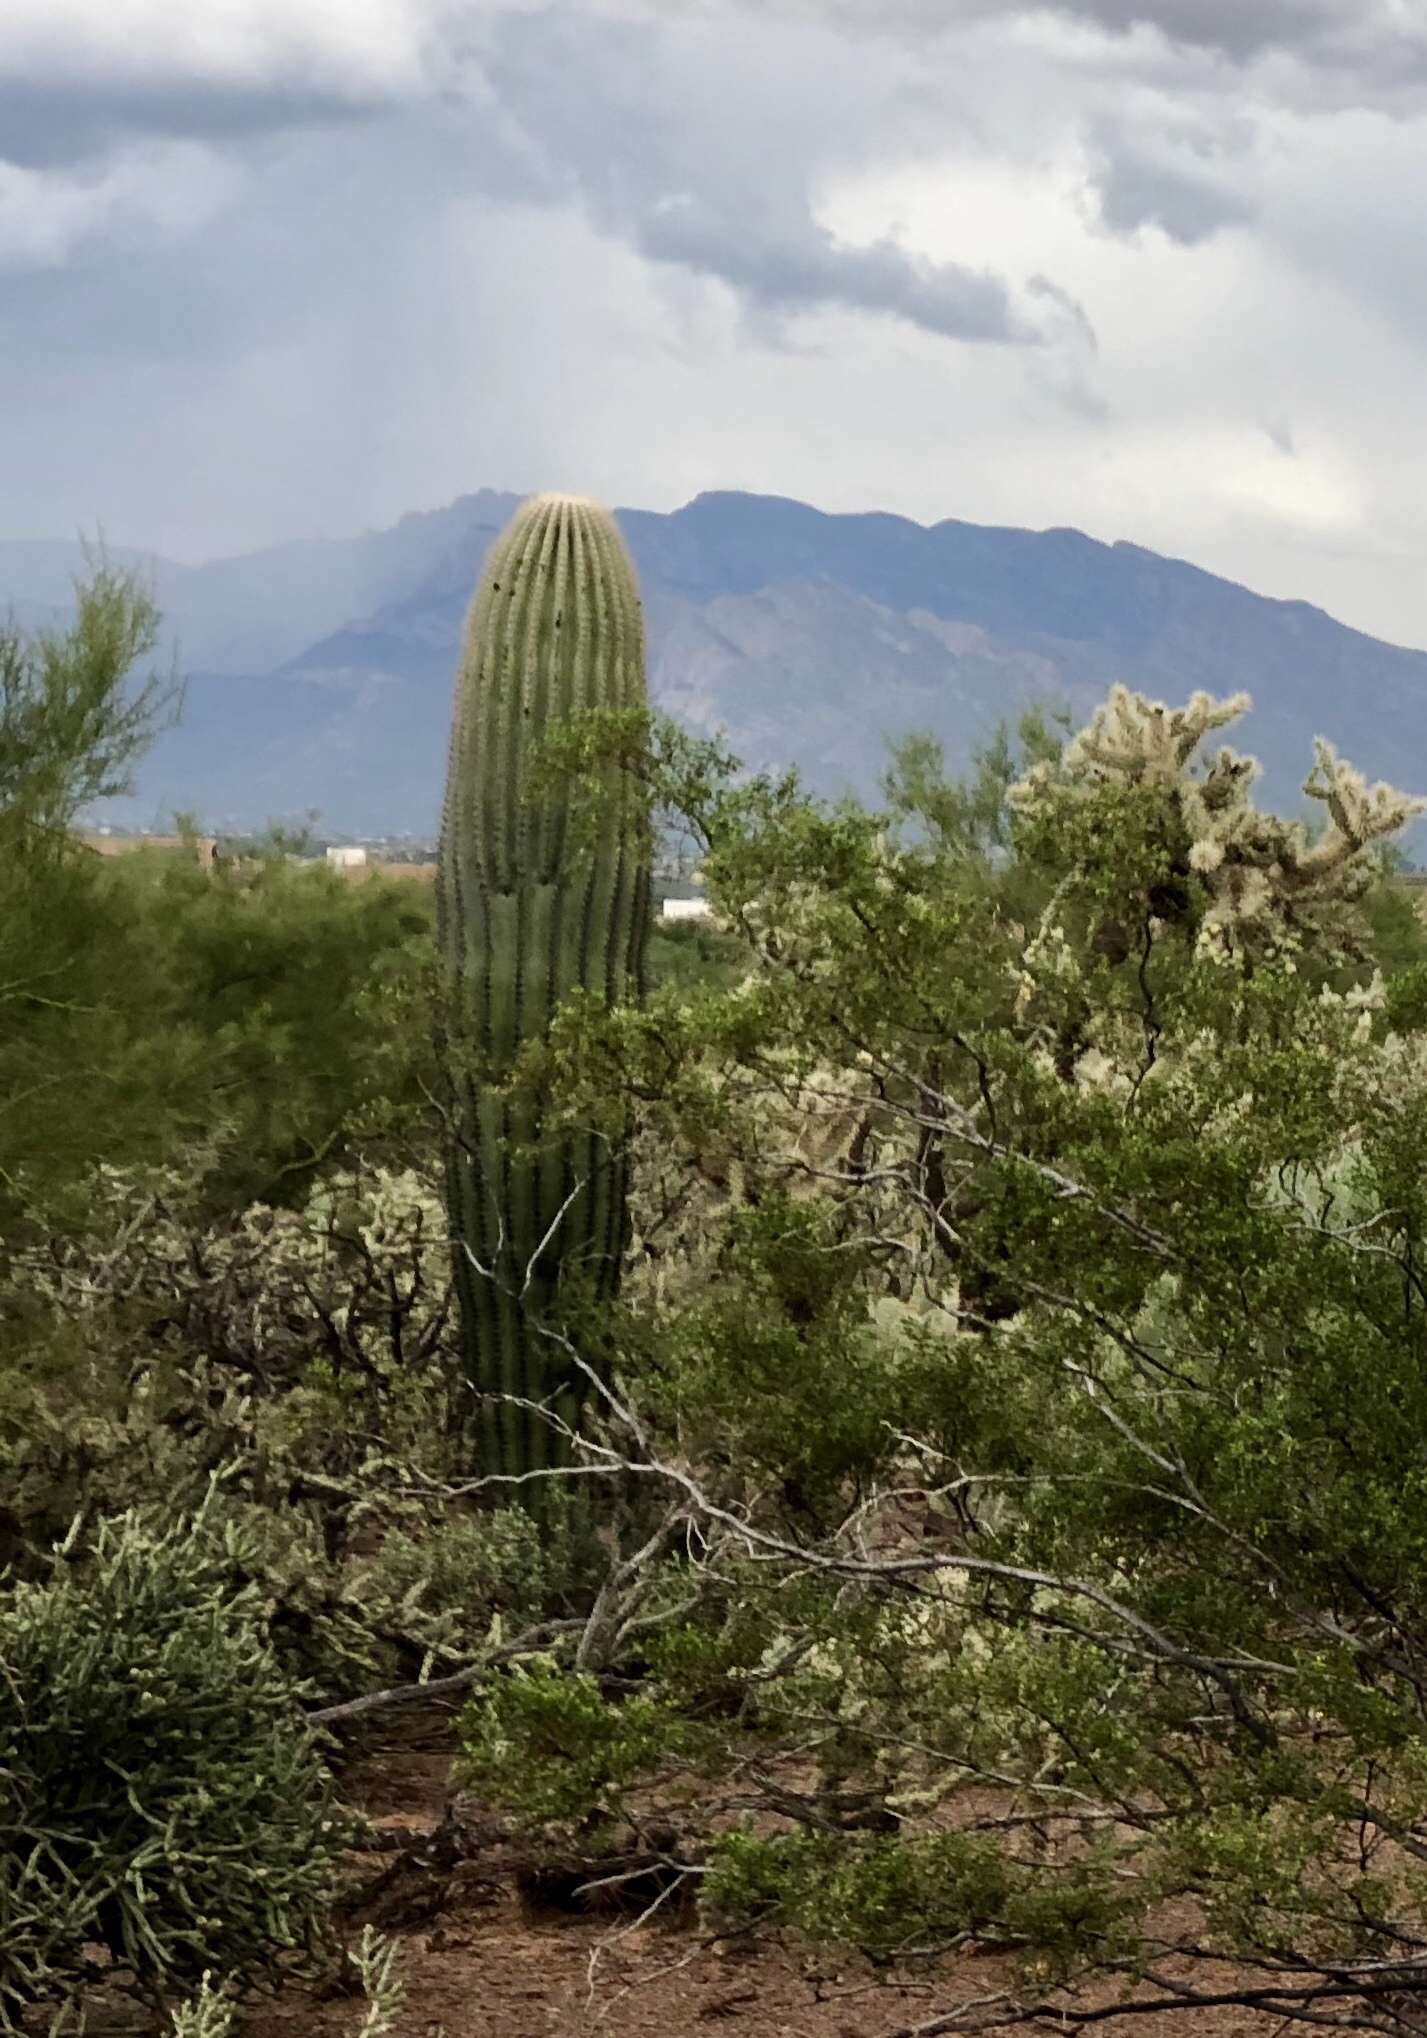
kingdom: Plantae
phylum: Tracheophyta
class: Magnoliopsida
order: Caryophyllales
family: Cactaceae
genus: Carnegiea
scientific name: Carnegiea gigantea
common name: Saguaro
